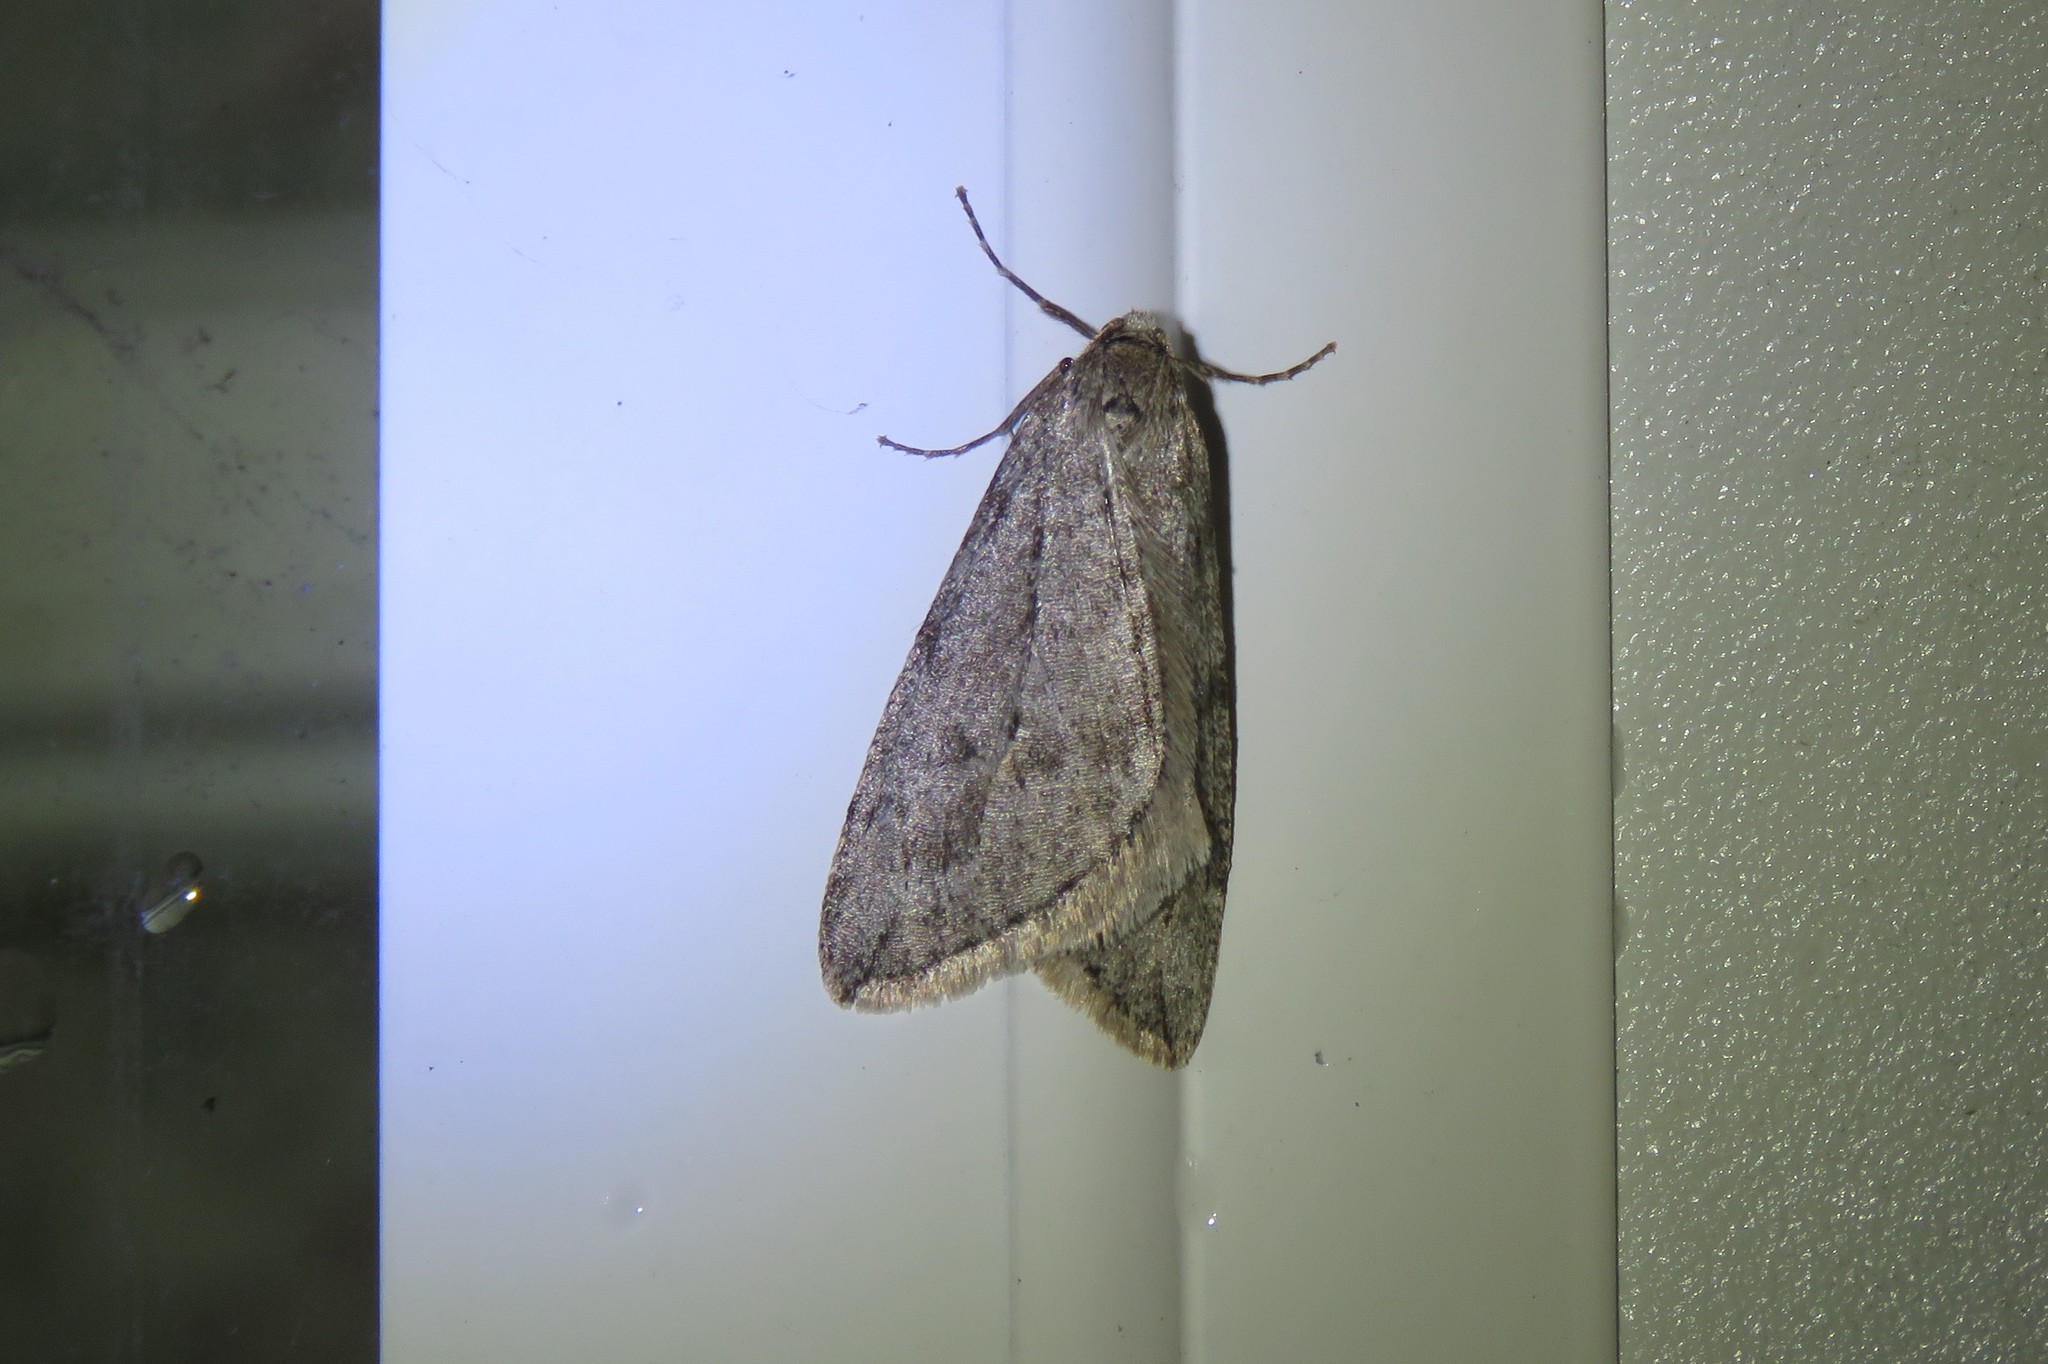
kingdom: Animalia
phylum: Arthropoda
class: Insecta
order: Lepidoptera
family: Geometridae
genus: Paleacrita
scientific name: Paleacrita vernata
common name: Spring cankerworm
